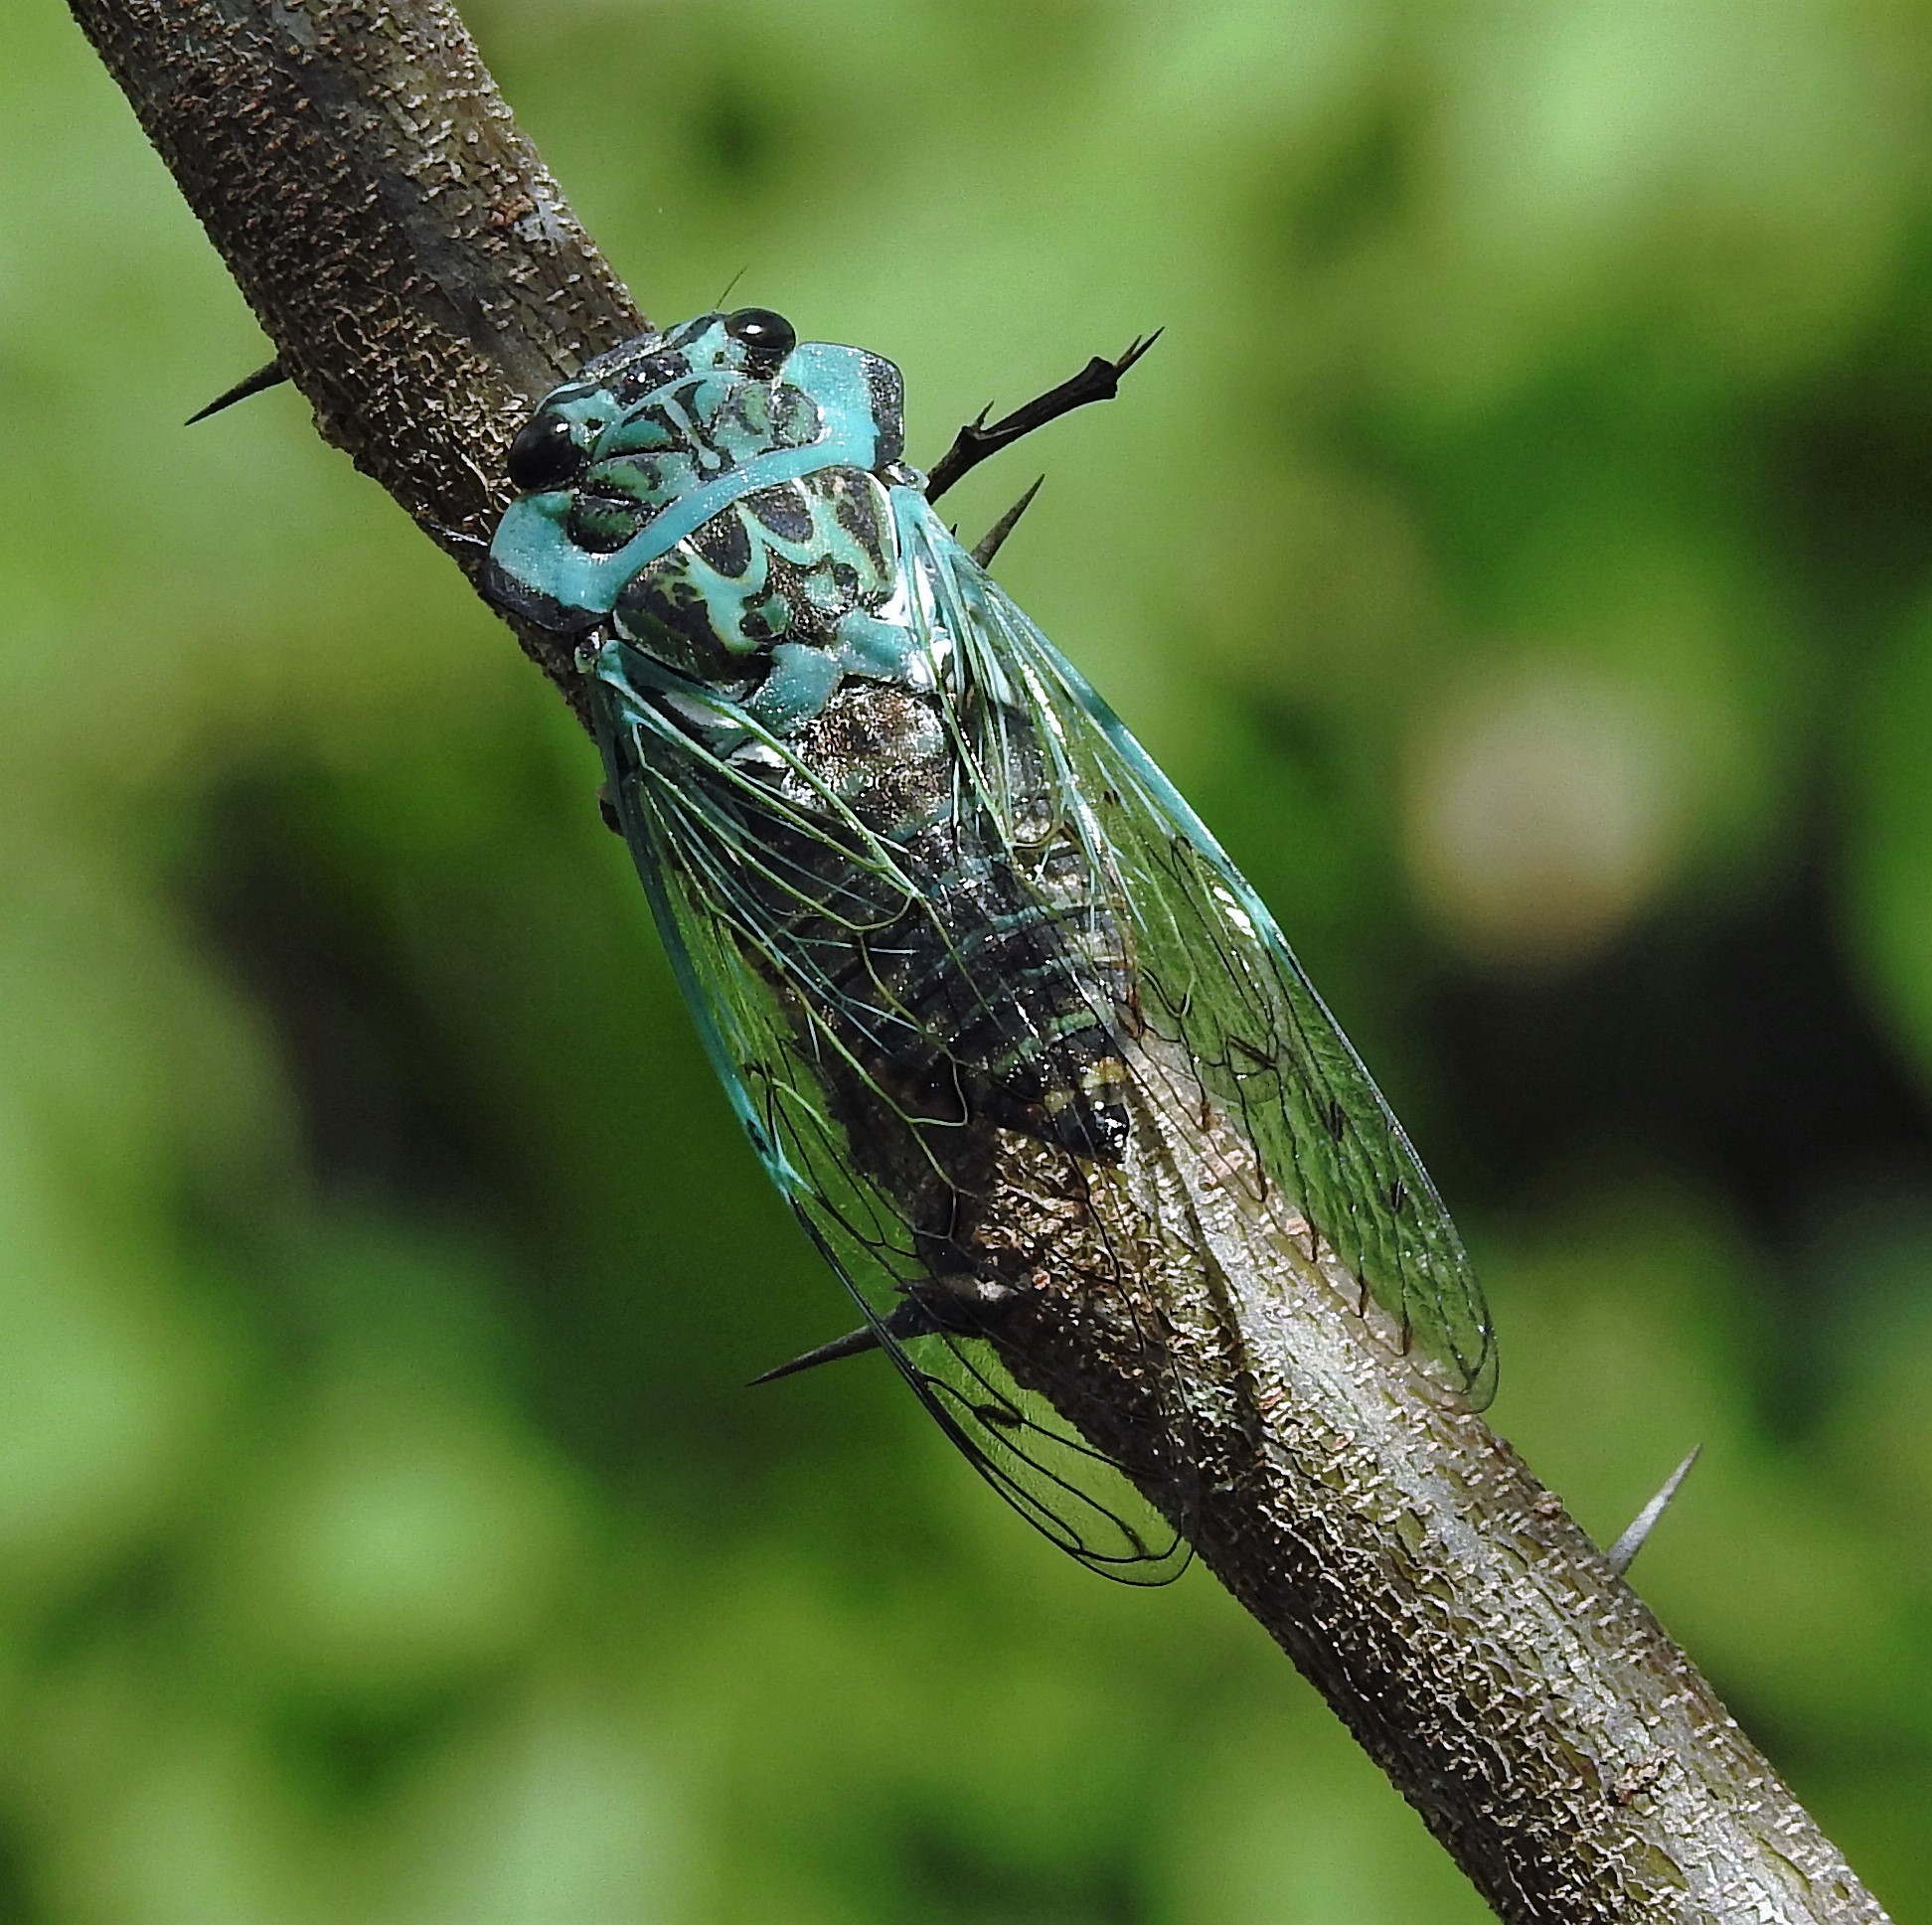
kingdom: Animalia
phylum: Arthropoda
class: Insecta
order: Hemiptera
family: Cicadidae
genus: Adusella
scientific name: Adusella insignifera
